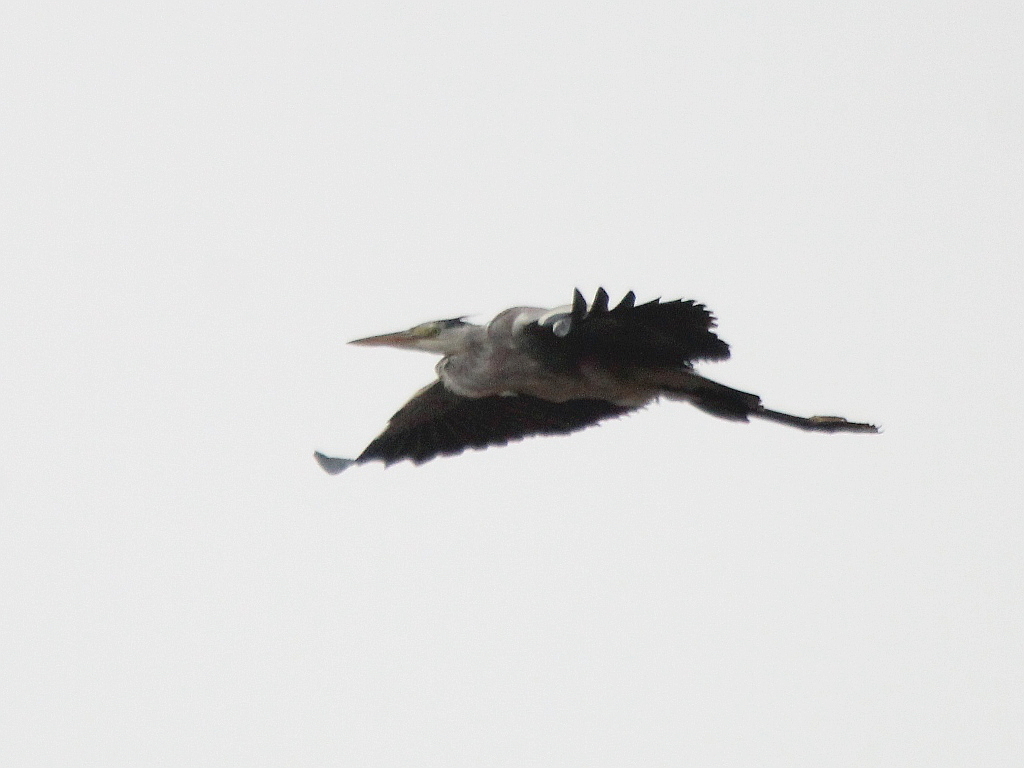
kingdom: Animalia
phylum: Chordata
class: Aves
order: Pelecaniformes
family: Ardeidae
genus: Ardea
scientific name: Ardea cinerea
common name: Grey heron
